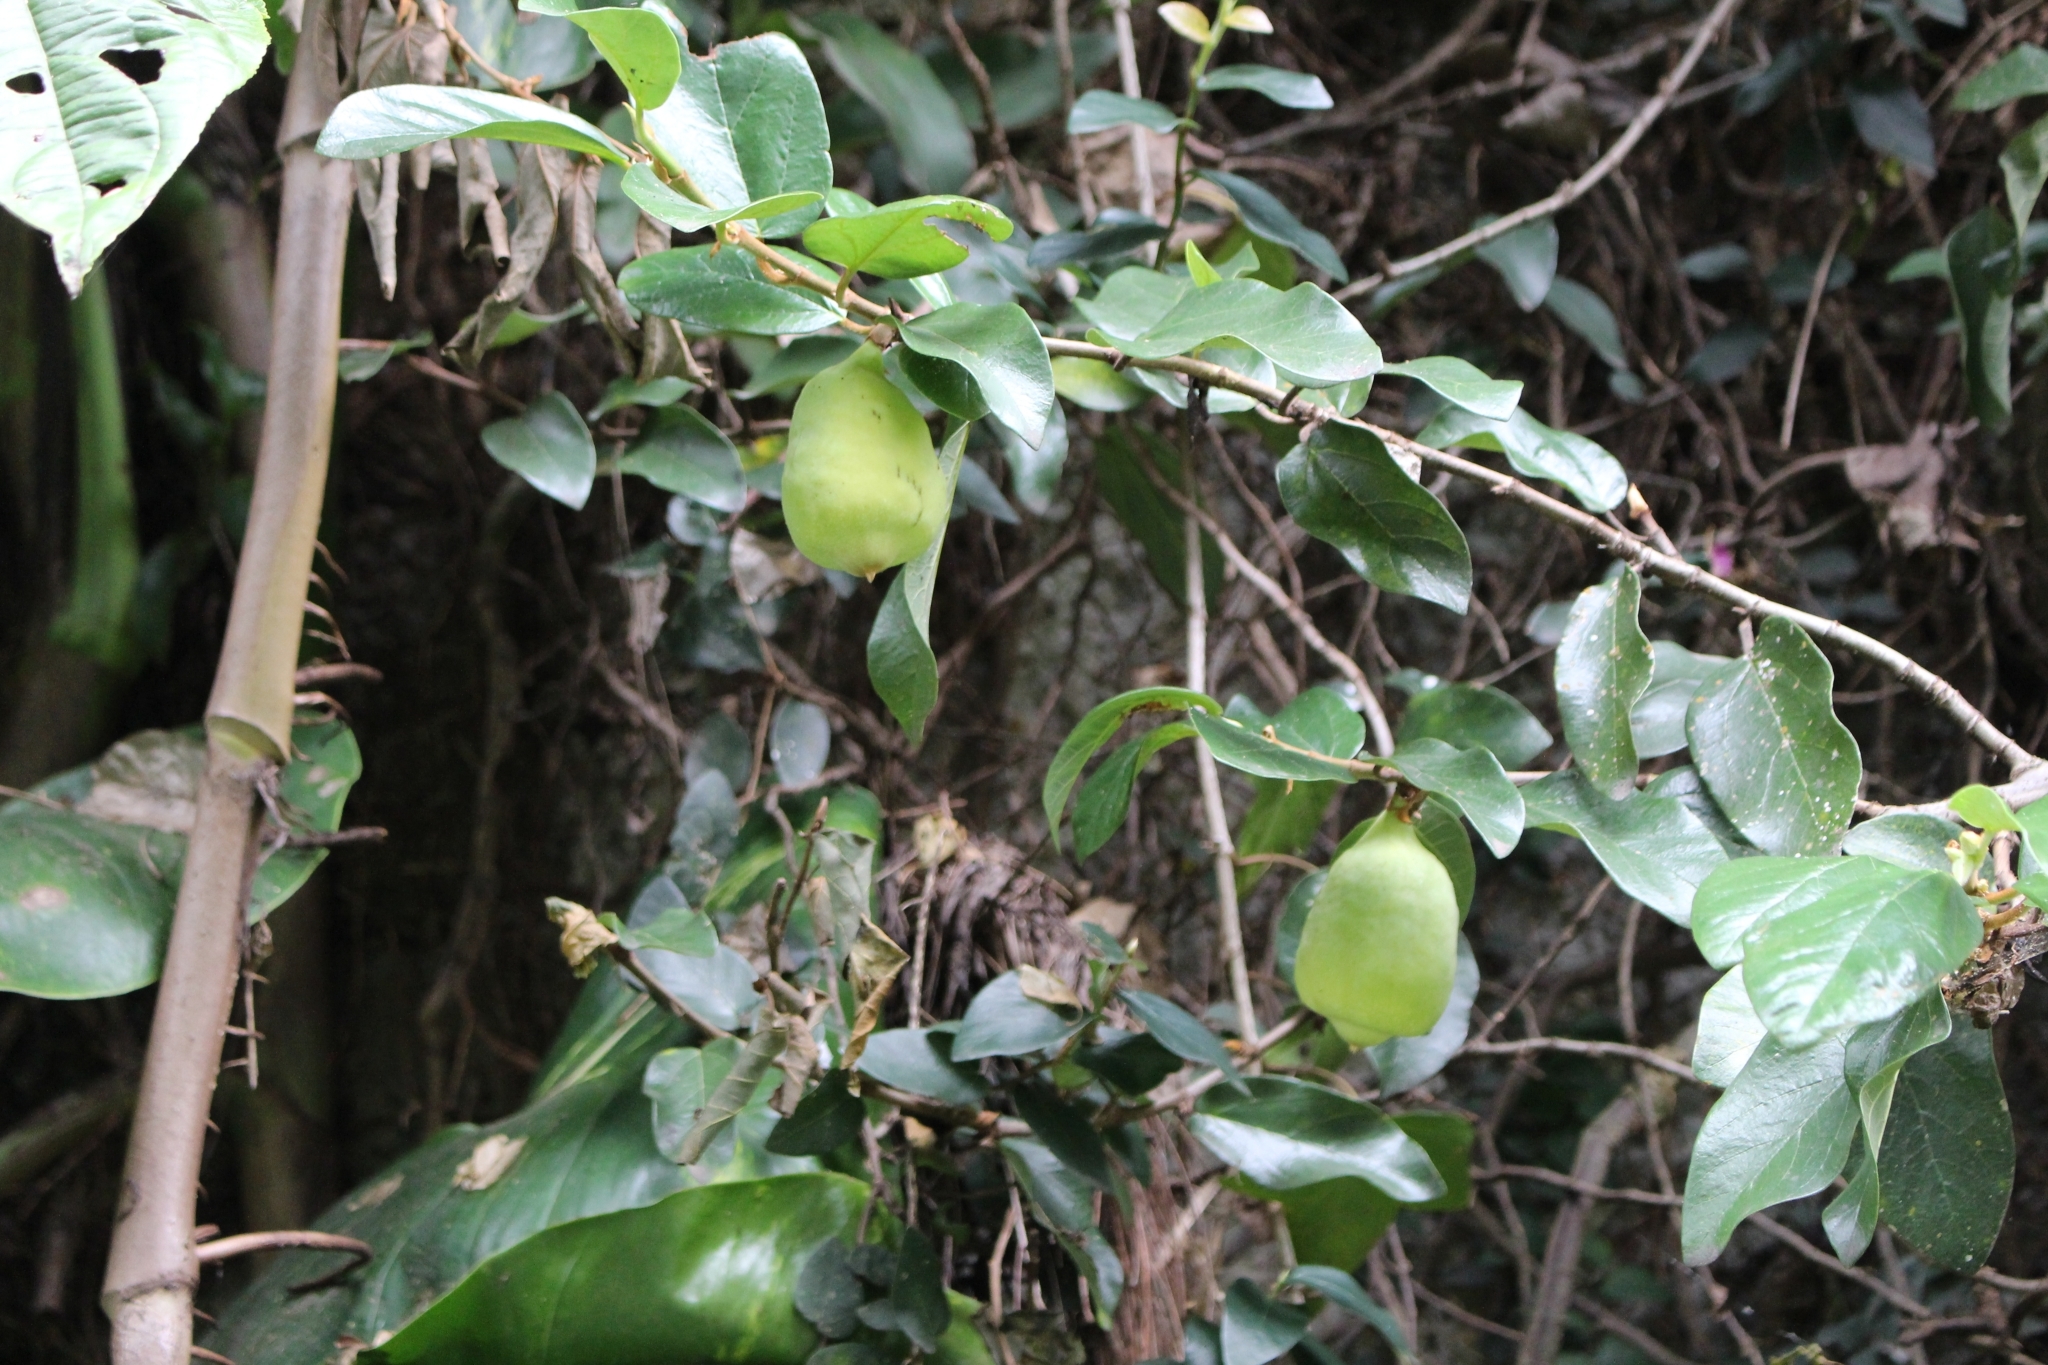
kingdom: Plantae
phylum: Tracheophyta
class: Magnoliopsida
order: Rosales
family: Moraceae
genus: Ficus
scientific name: Ficus pumila
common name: Climbingfig
